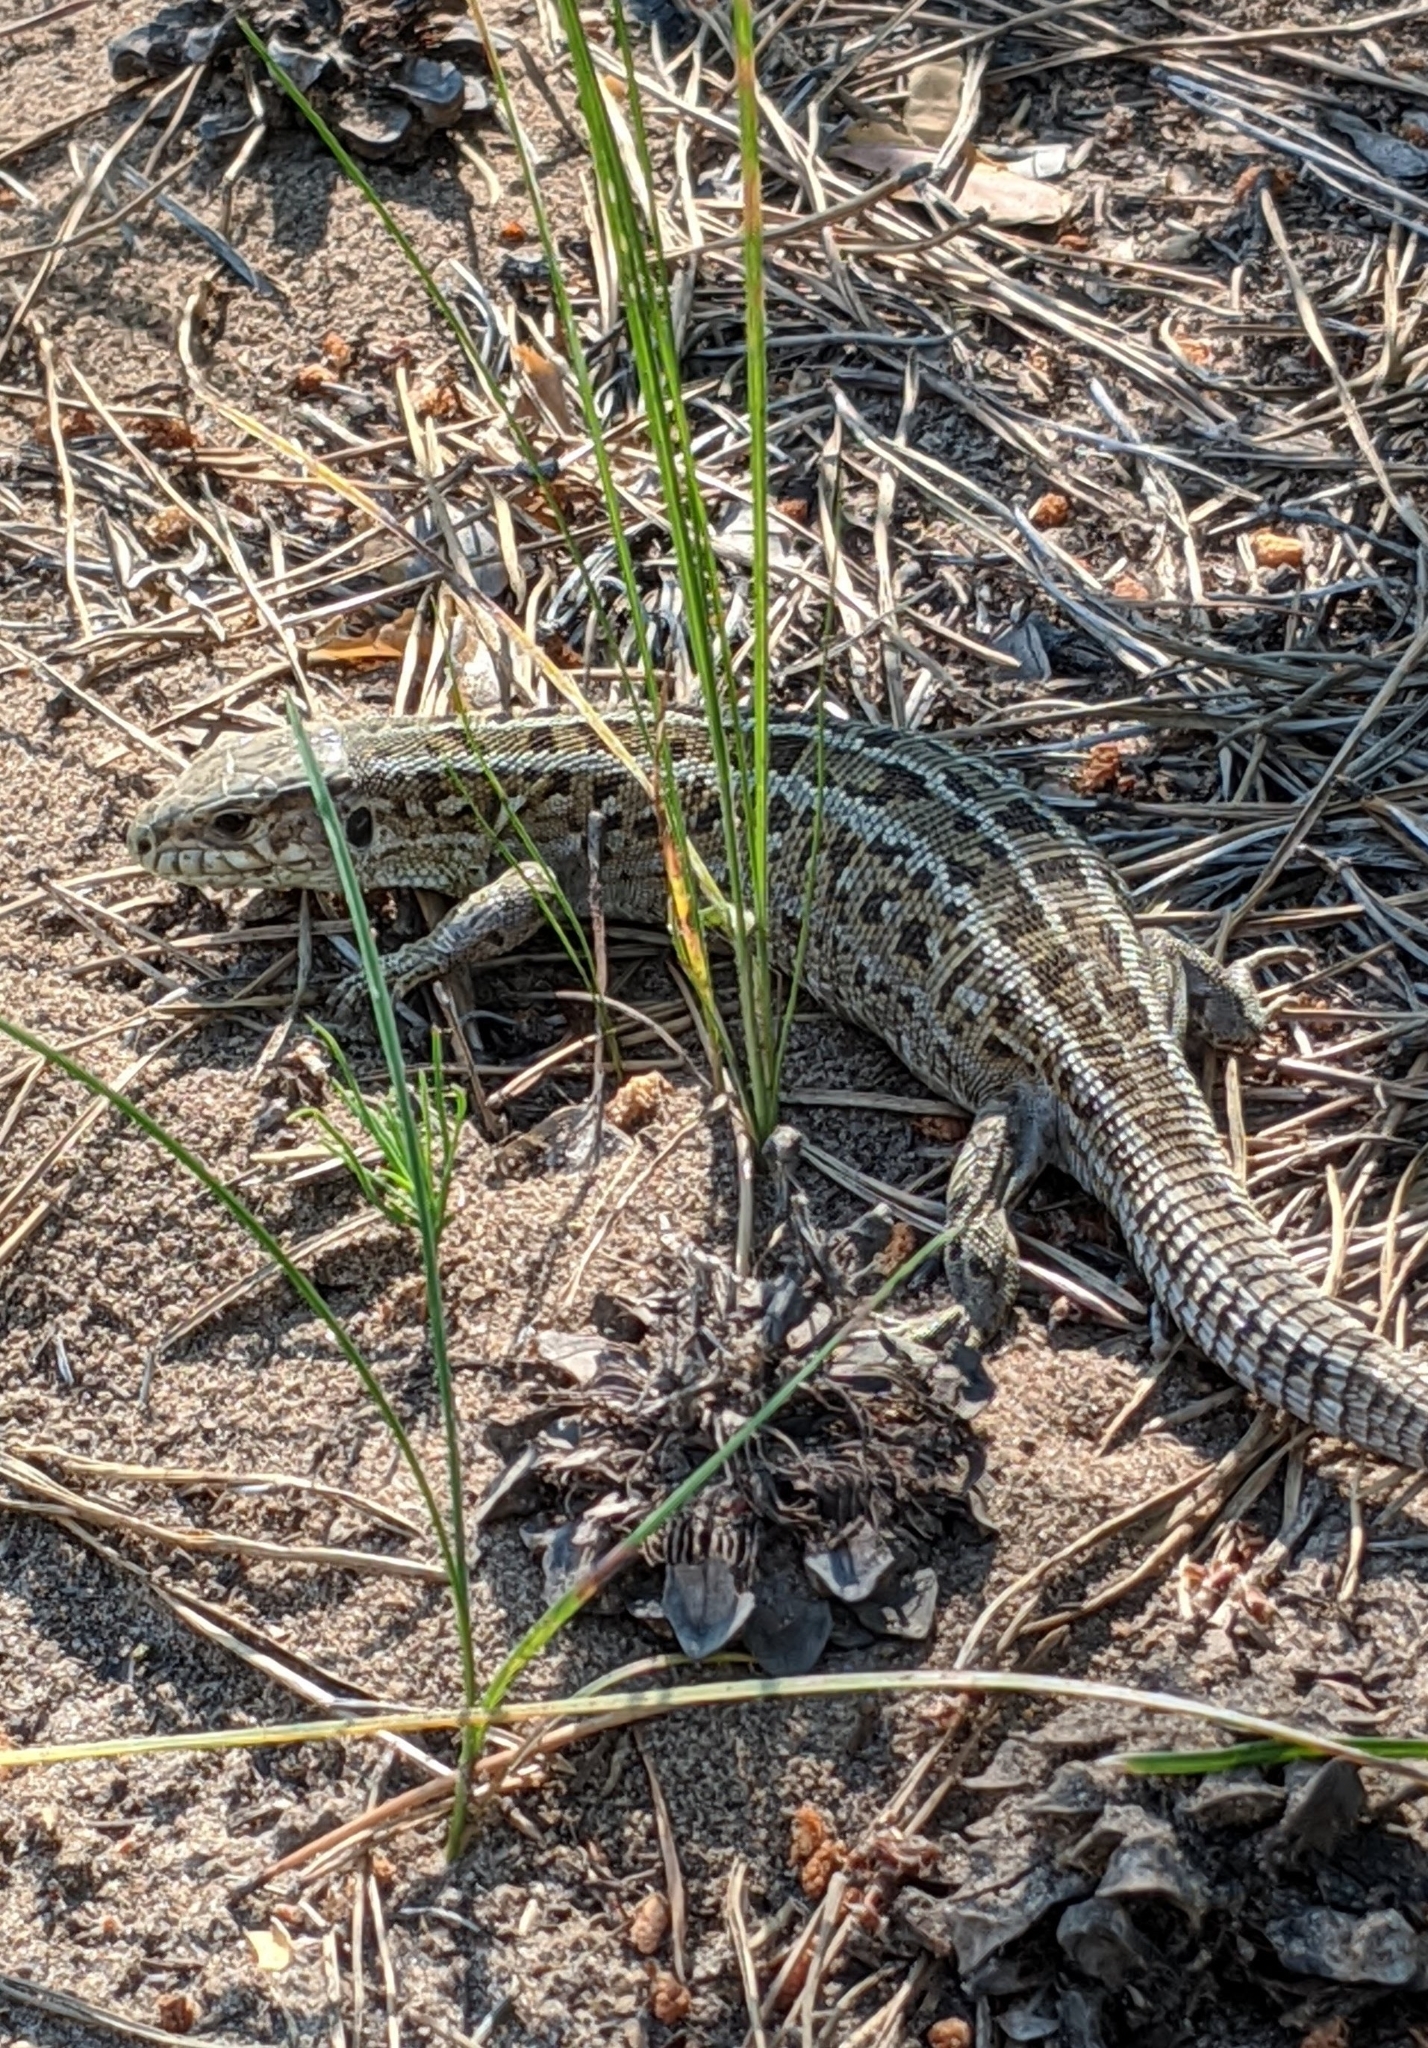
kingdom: Animalia
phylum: Chordata
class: Squamata
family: Lacertidae
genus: Lacerta
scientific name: Lacerta agilis
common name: Sand lizard
